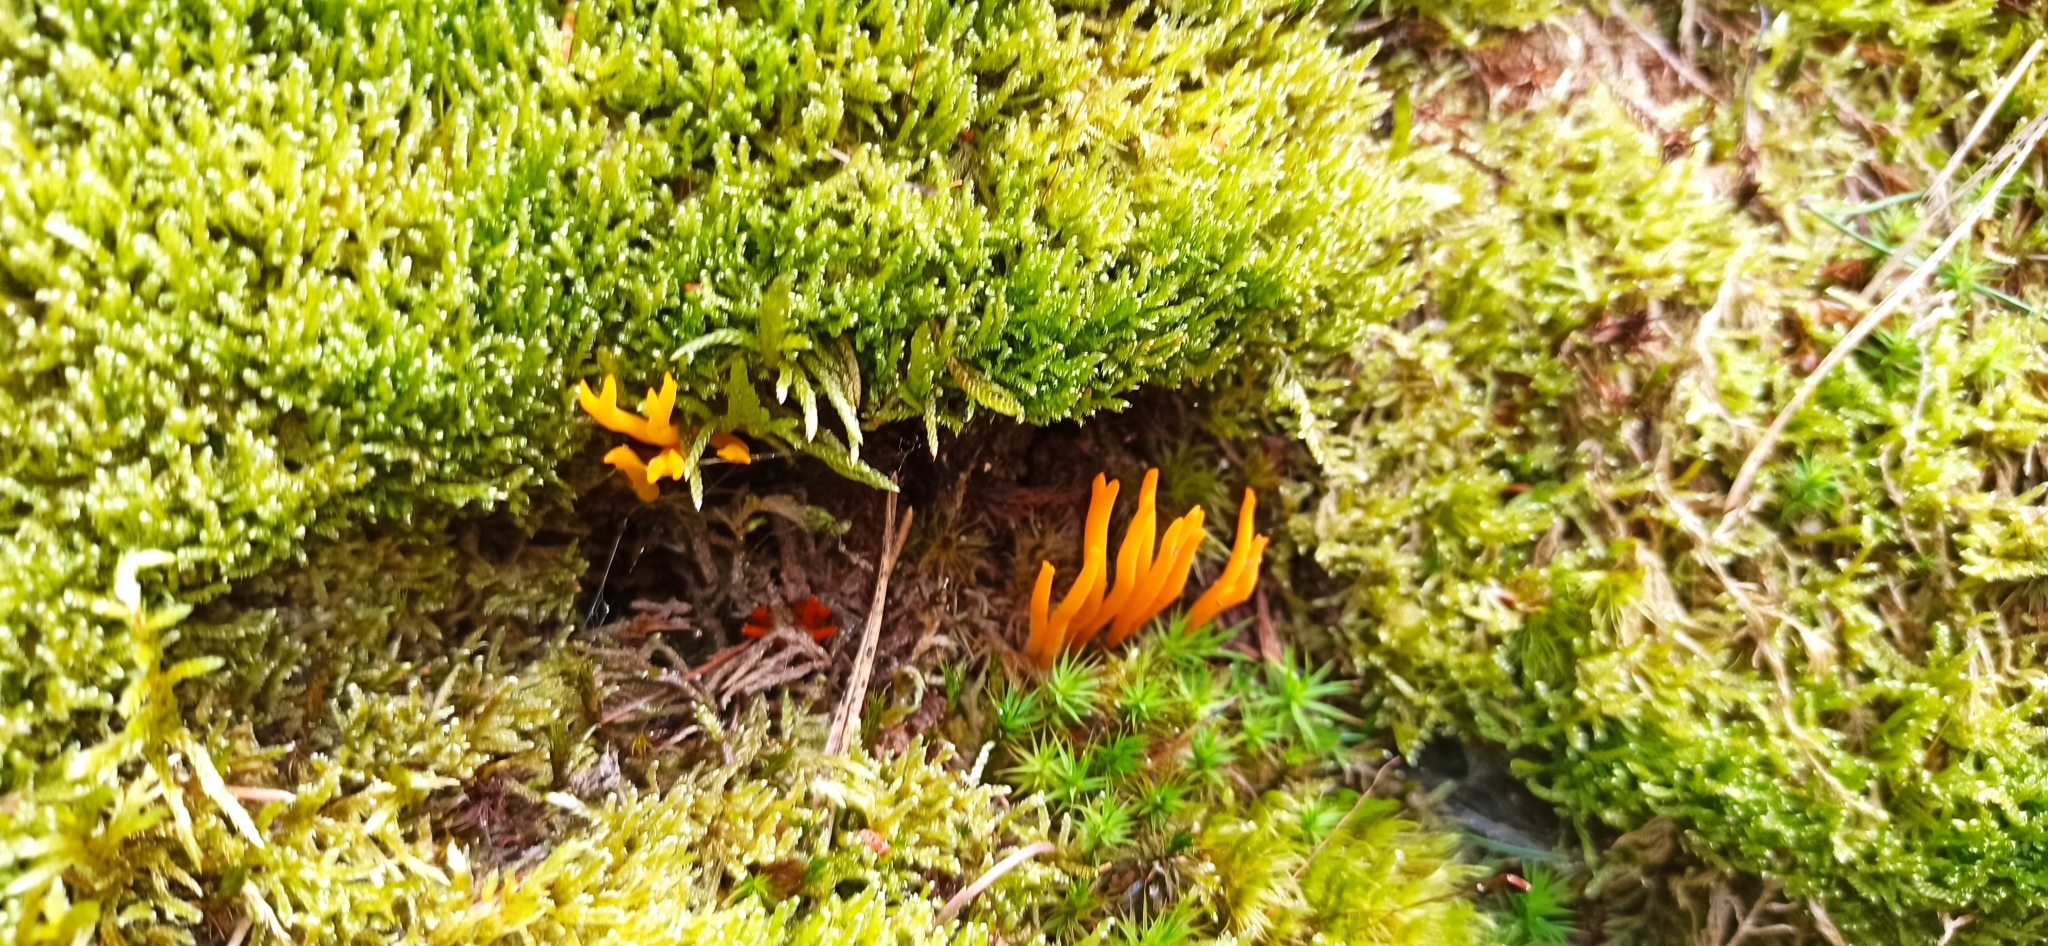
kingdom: Fungi
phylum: Basidiomycota
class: Dacrymycetes
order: Dacrymycetales
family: Dacrymycetaceae
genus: Calocera
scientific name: Calocera viscosa
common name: Yellow stagshorn
